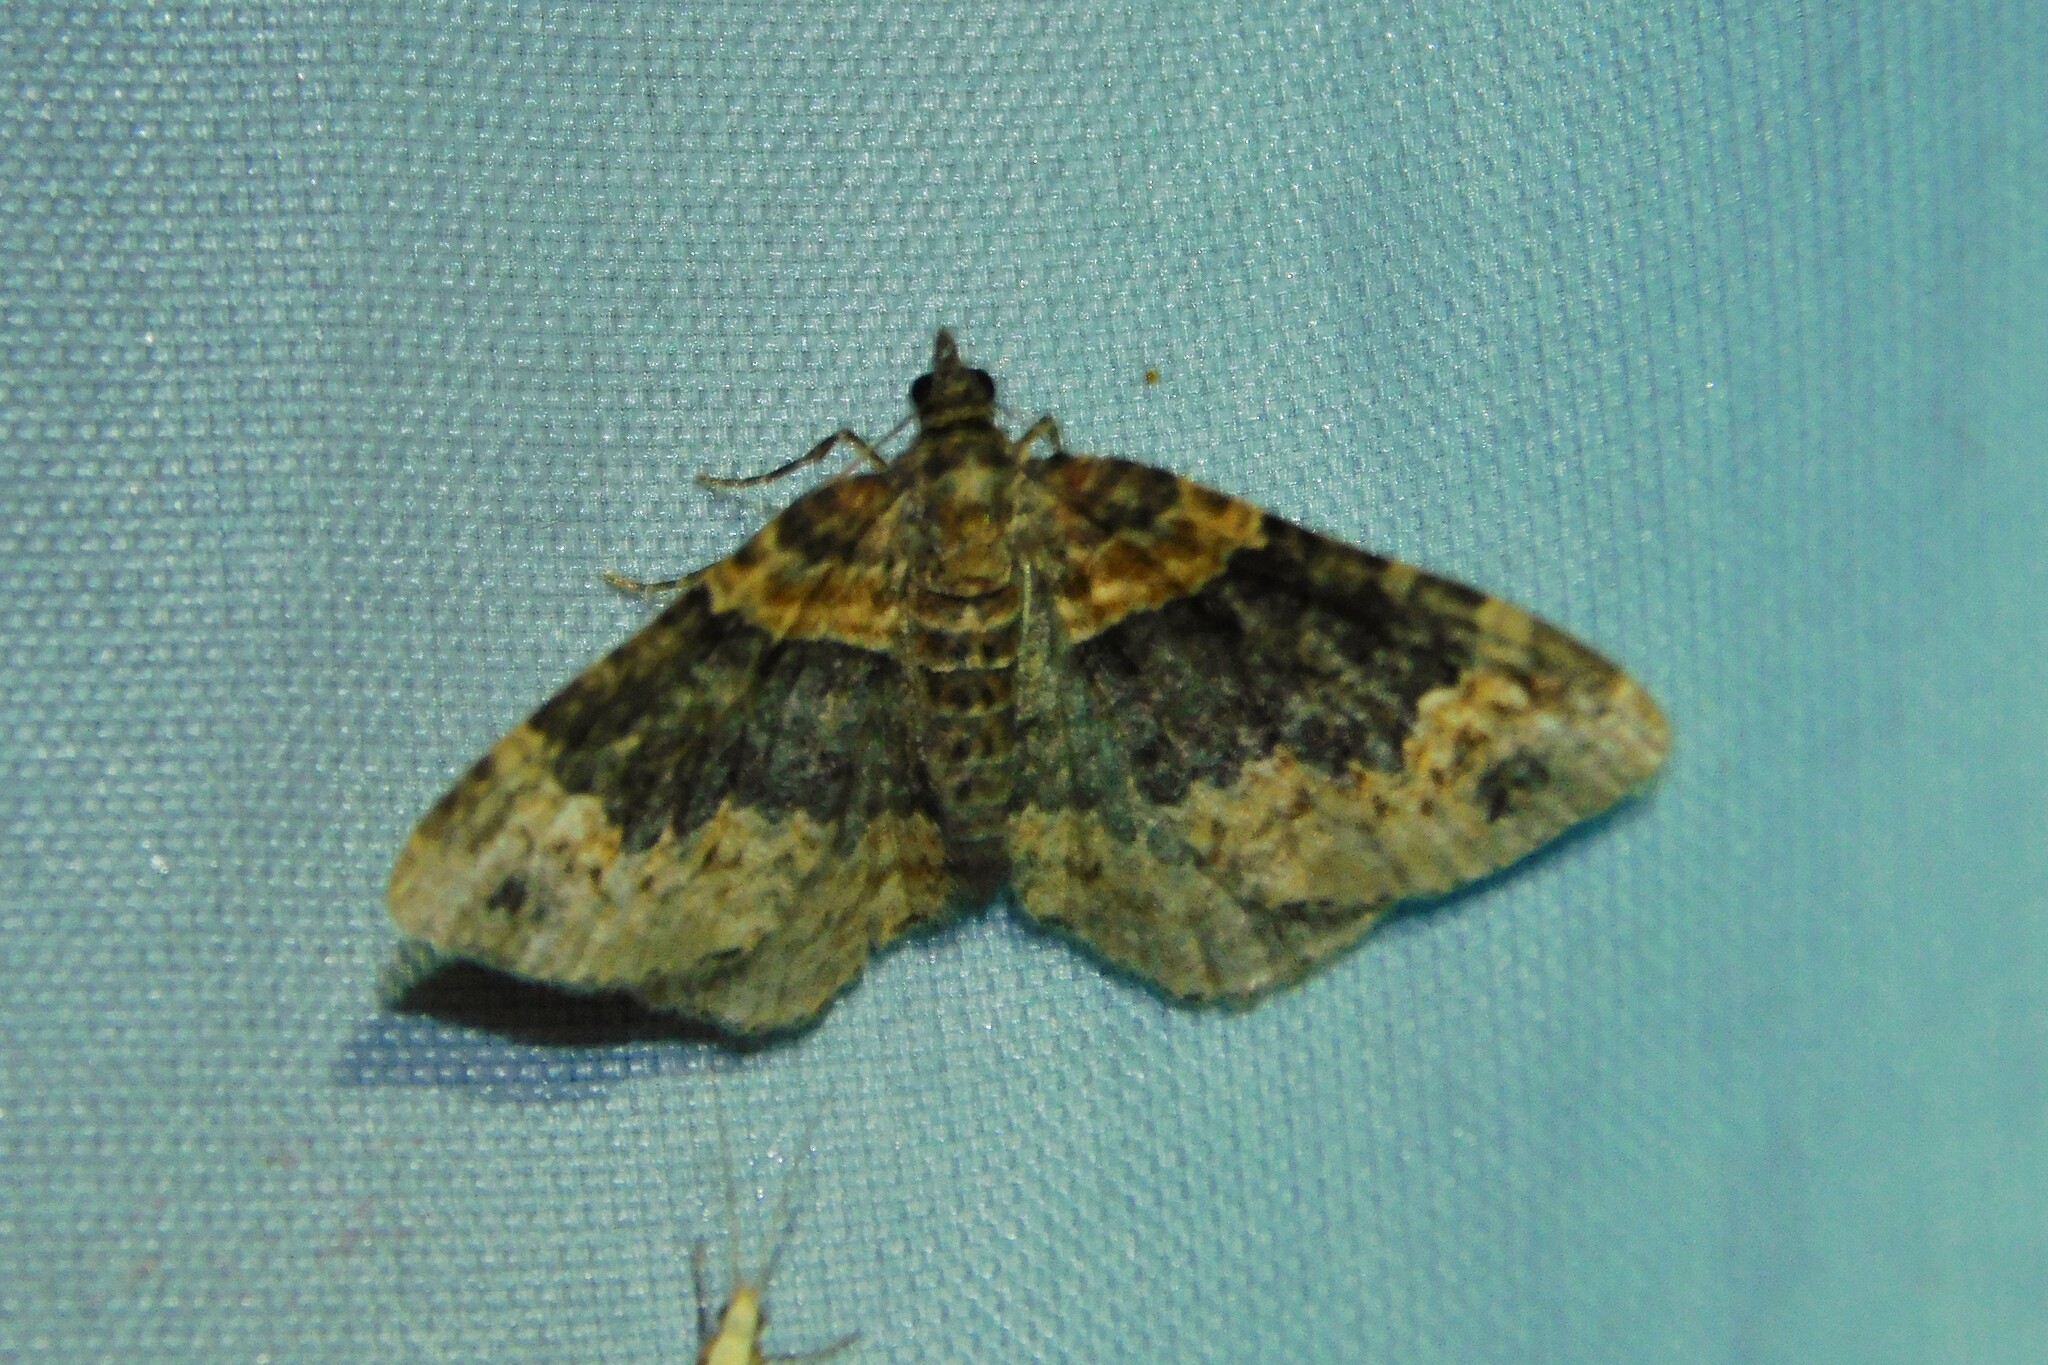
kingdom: Animalia
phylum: Arthropoda
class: Insecta
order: Lepidoptera
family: Geometridae
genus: Xanthorhoe
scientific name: Xanthorhoe ferrugata
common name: Dark-barred twin-spot carpet
